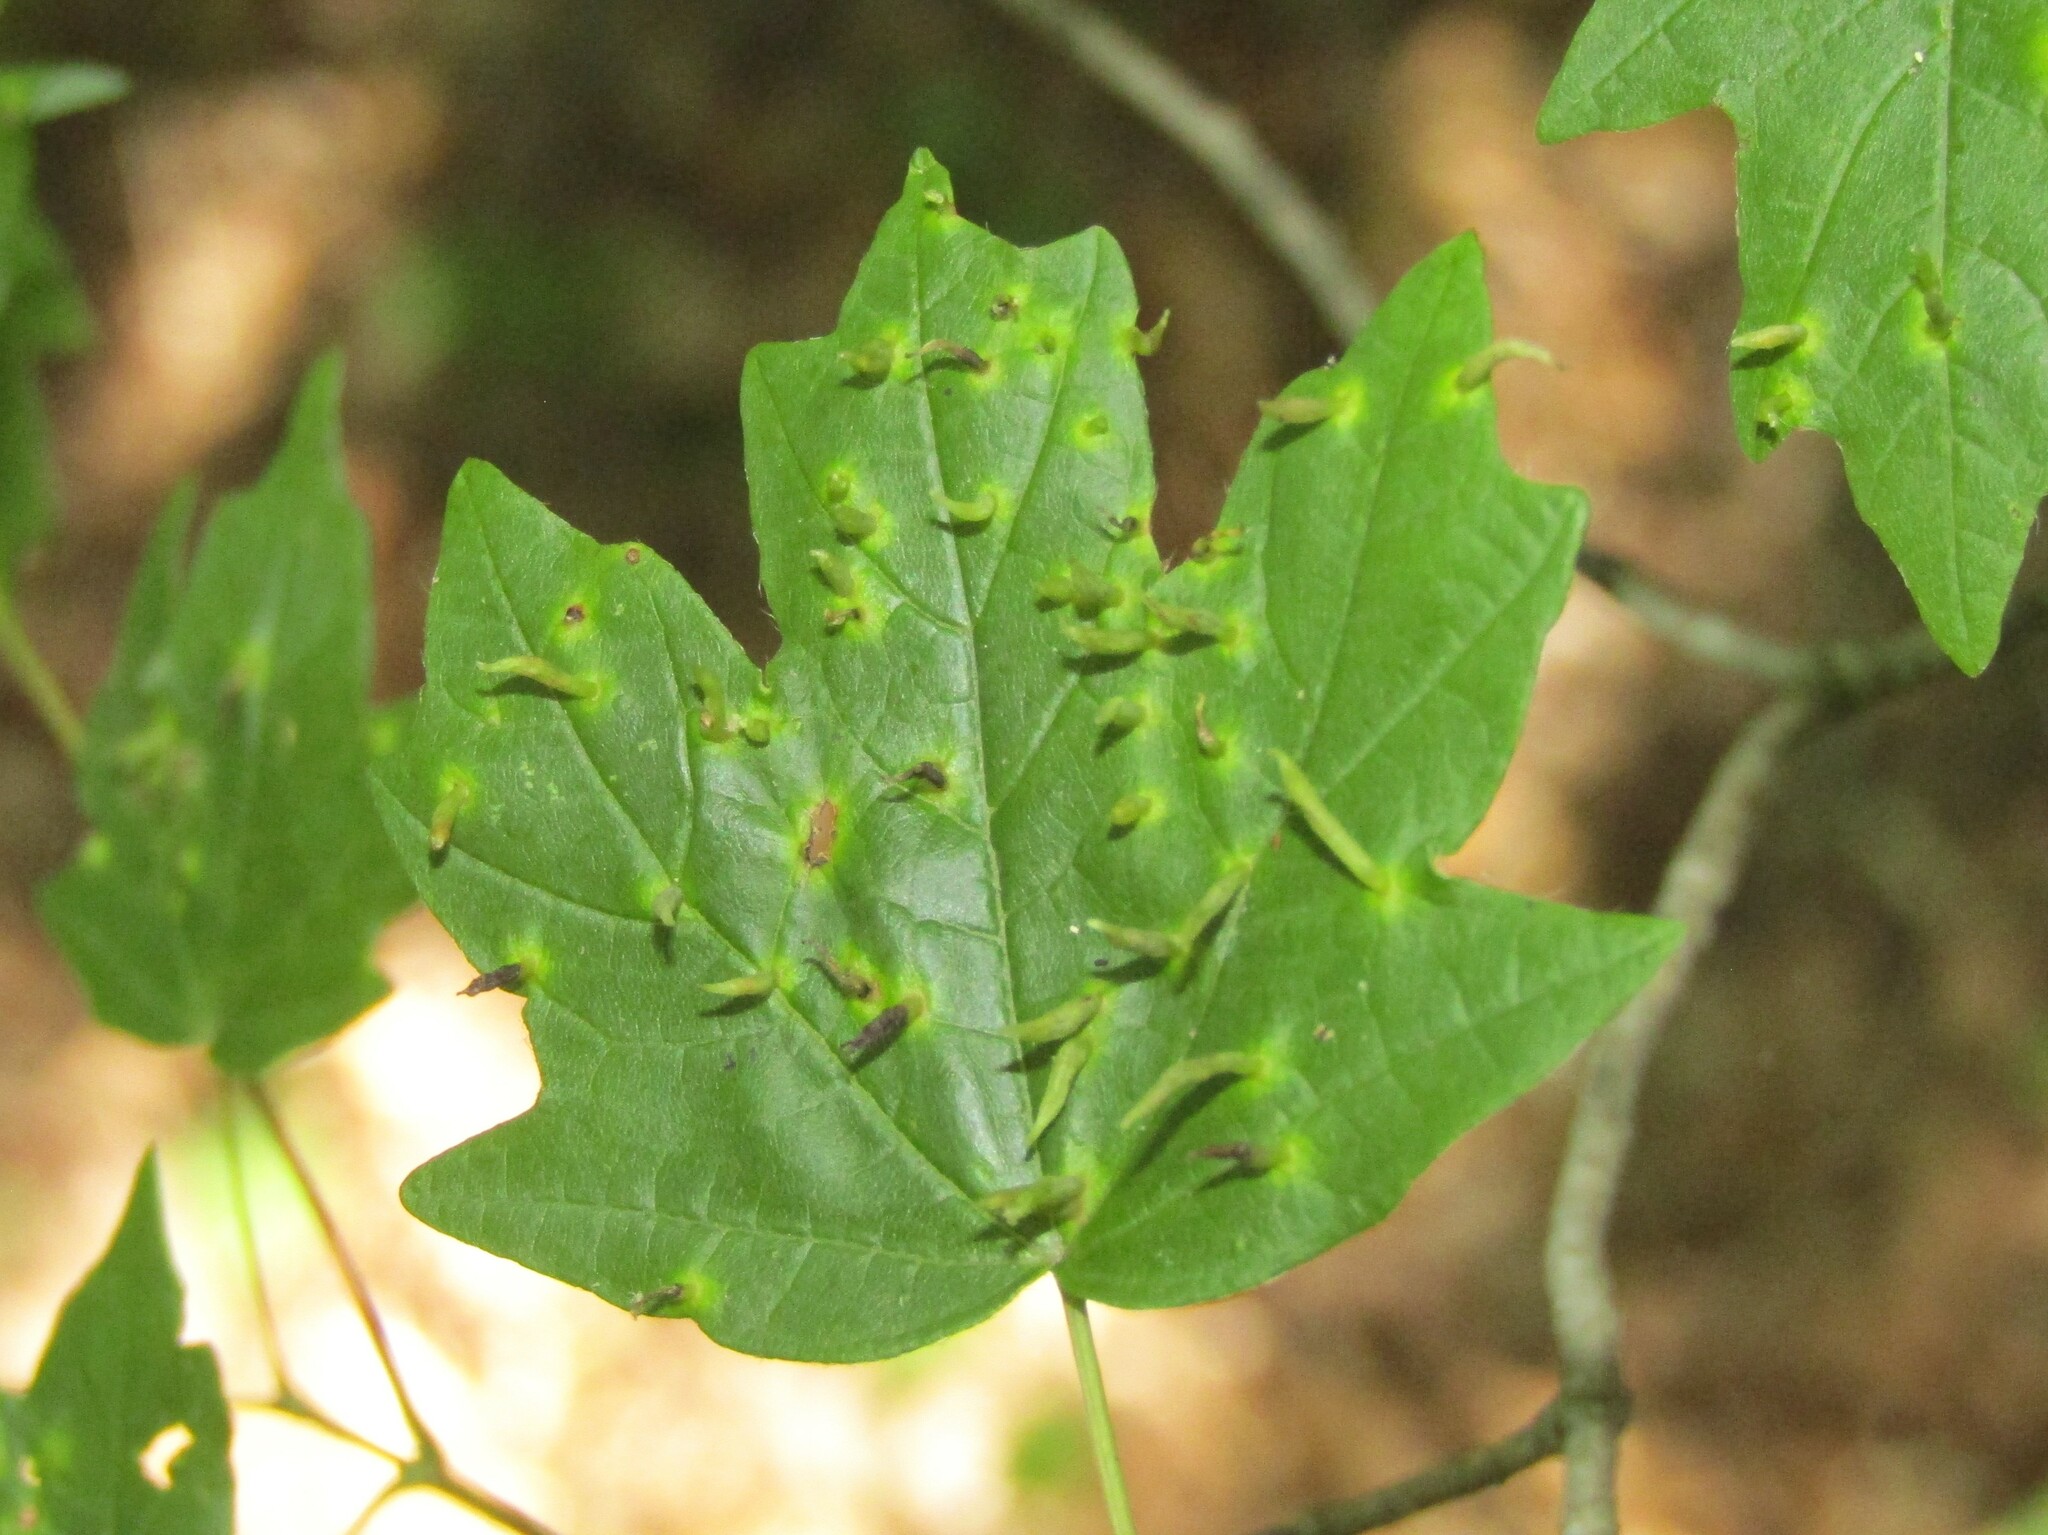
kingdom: Animalia
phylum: Arthropoda
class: Arachnida
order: Trombidiformes
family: Eriophyidae
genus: Vasates
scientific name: Vasates aceriscrumena
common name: Maple spindle gall mite
